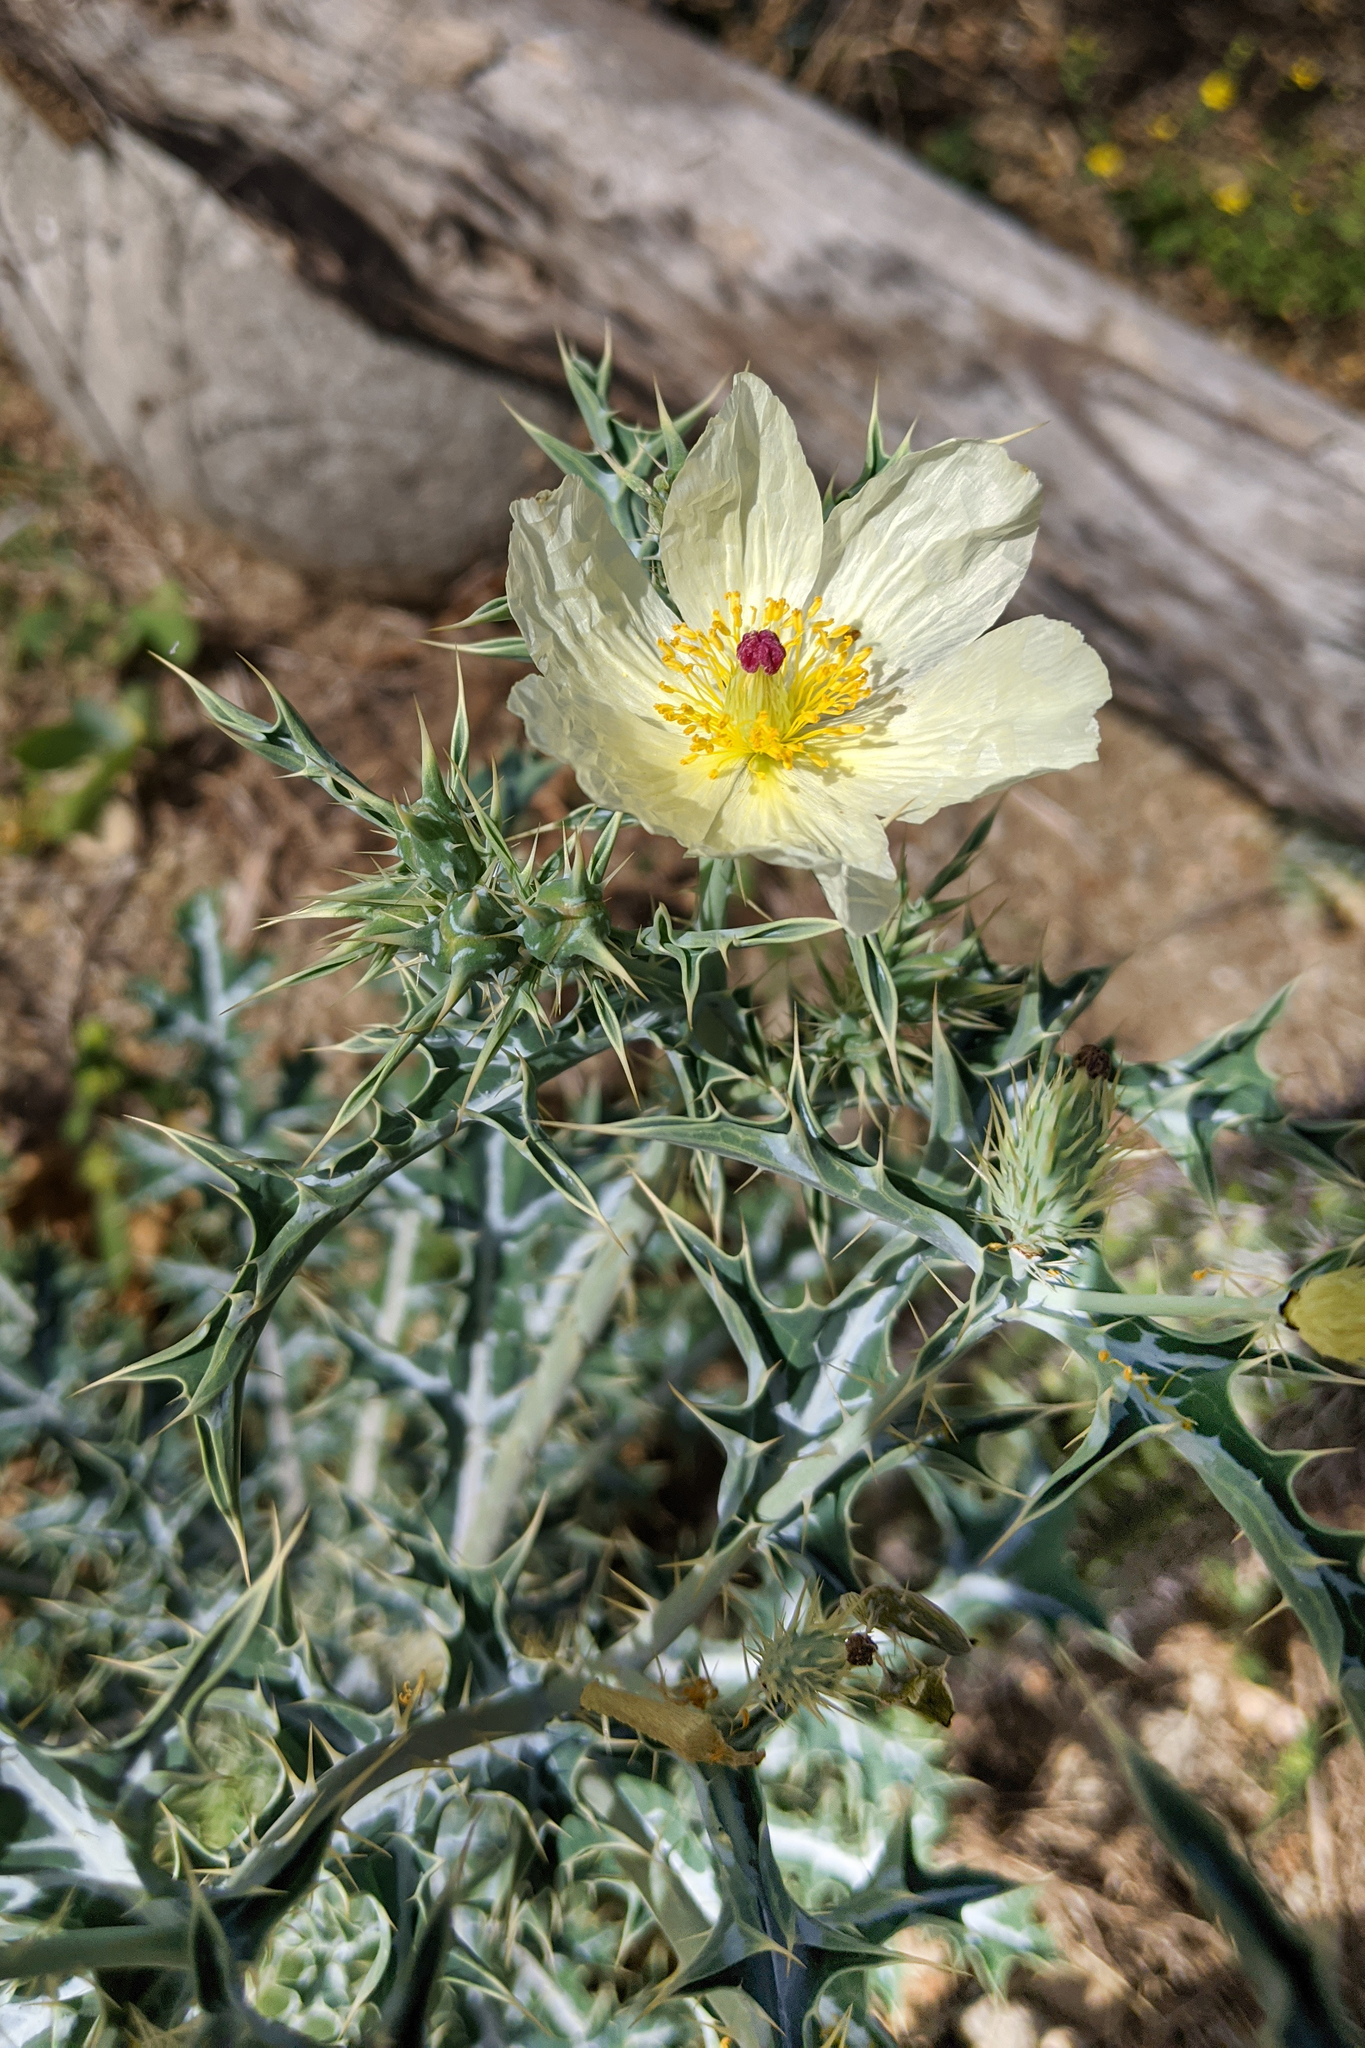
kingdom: Plantae
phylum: Tracheophyta
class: Magnoliopsida
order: Ranunculales
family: Papaveraceae
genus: Argemone
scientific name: Argemone ochroleuca
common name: White-flower mexican-poppy
